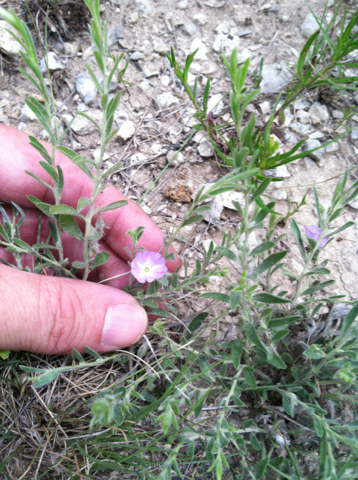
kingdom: Plantae
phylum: Tracheophyta
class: Magnoliopsida
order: Solanales
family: Convolvulaceae
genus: Evolvulus
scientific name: Evolvulus nuttallianus
